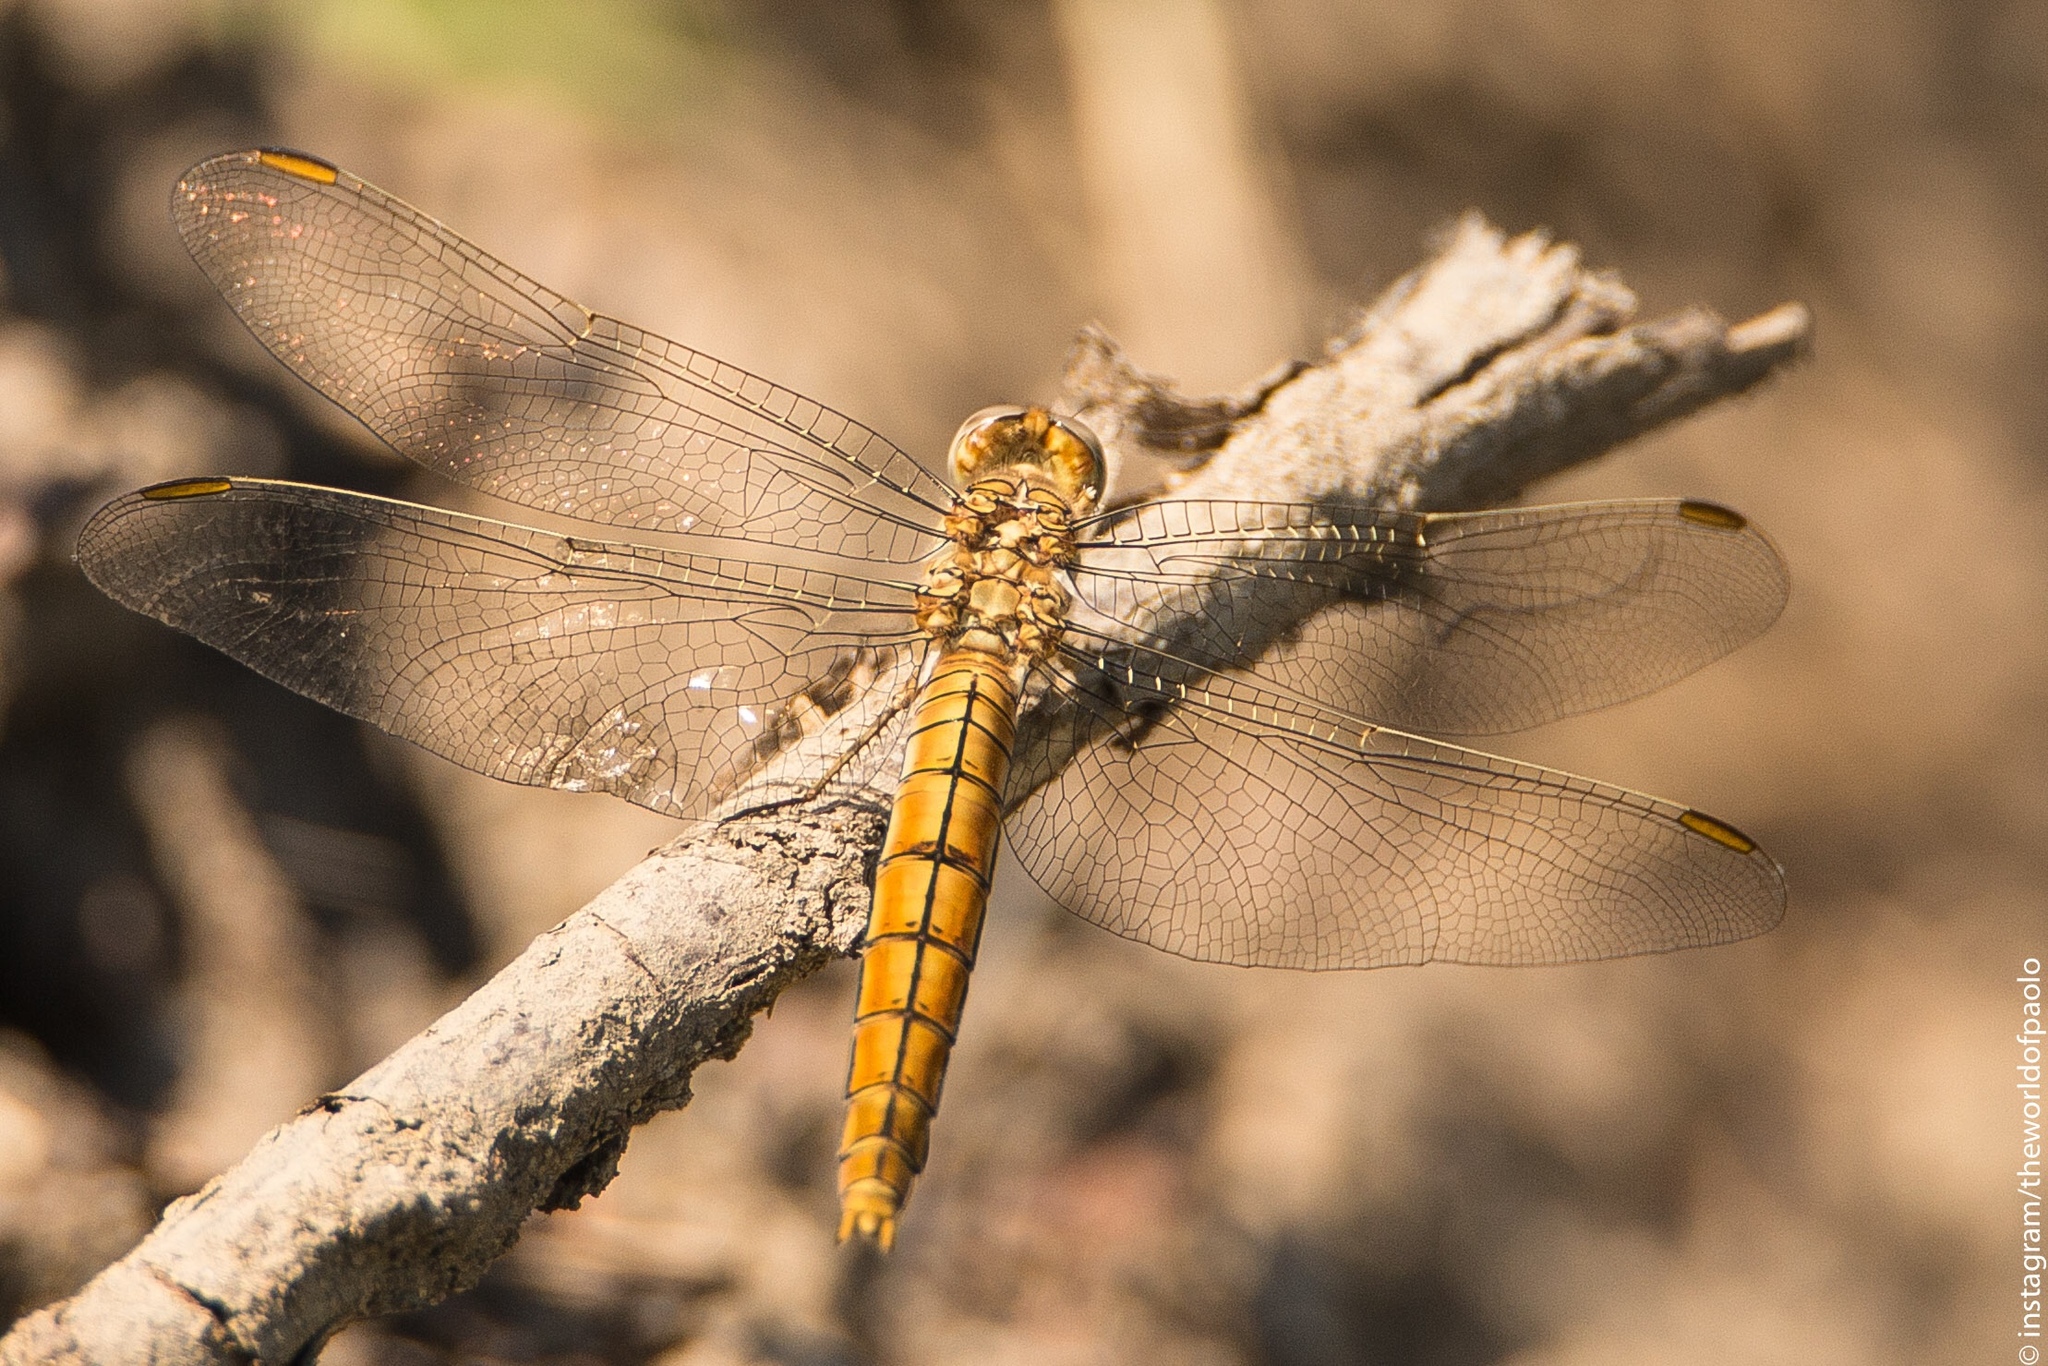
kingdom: Animalia
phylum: Arthropoda
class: Insecta
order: Odonata
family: Libellulidae
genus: Orthetrum
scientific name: Orthetrum brunneum
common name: Southern skimmer
